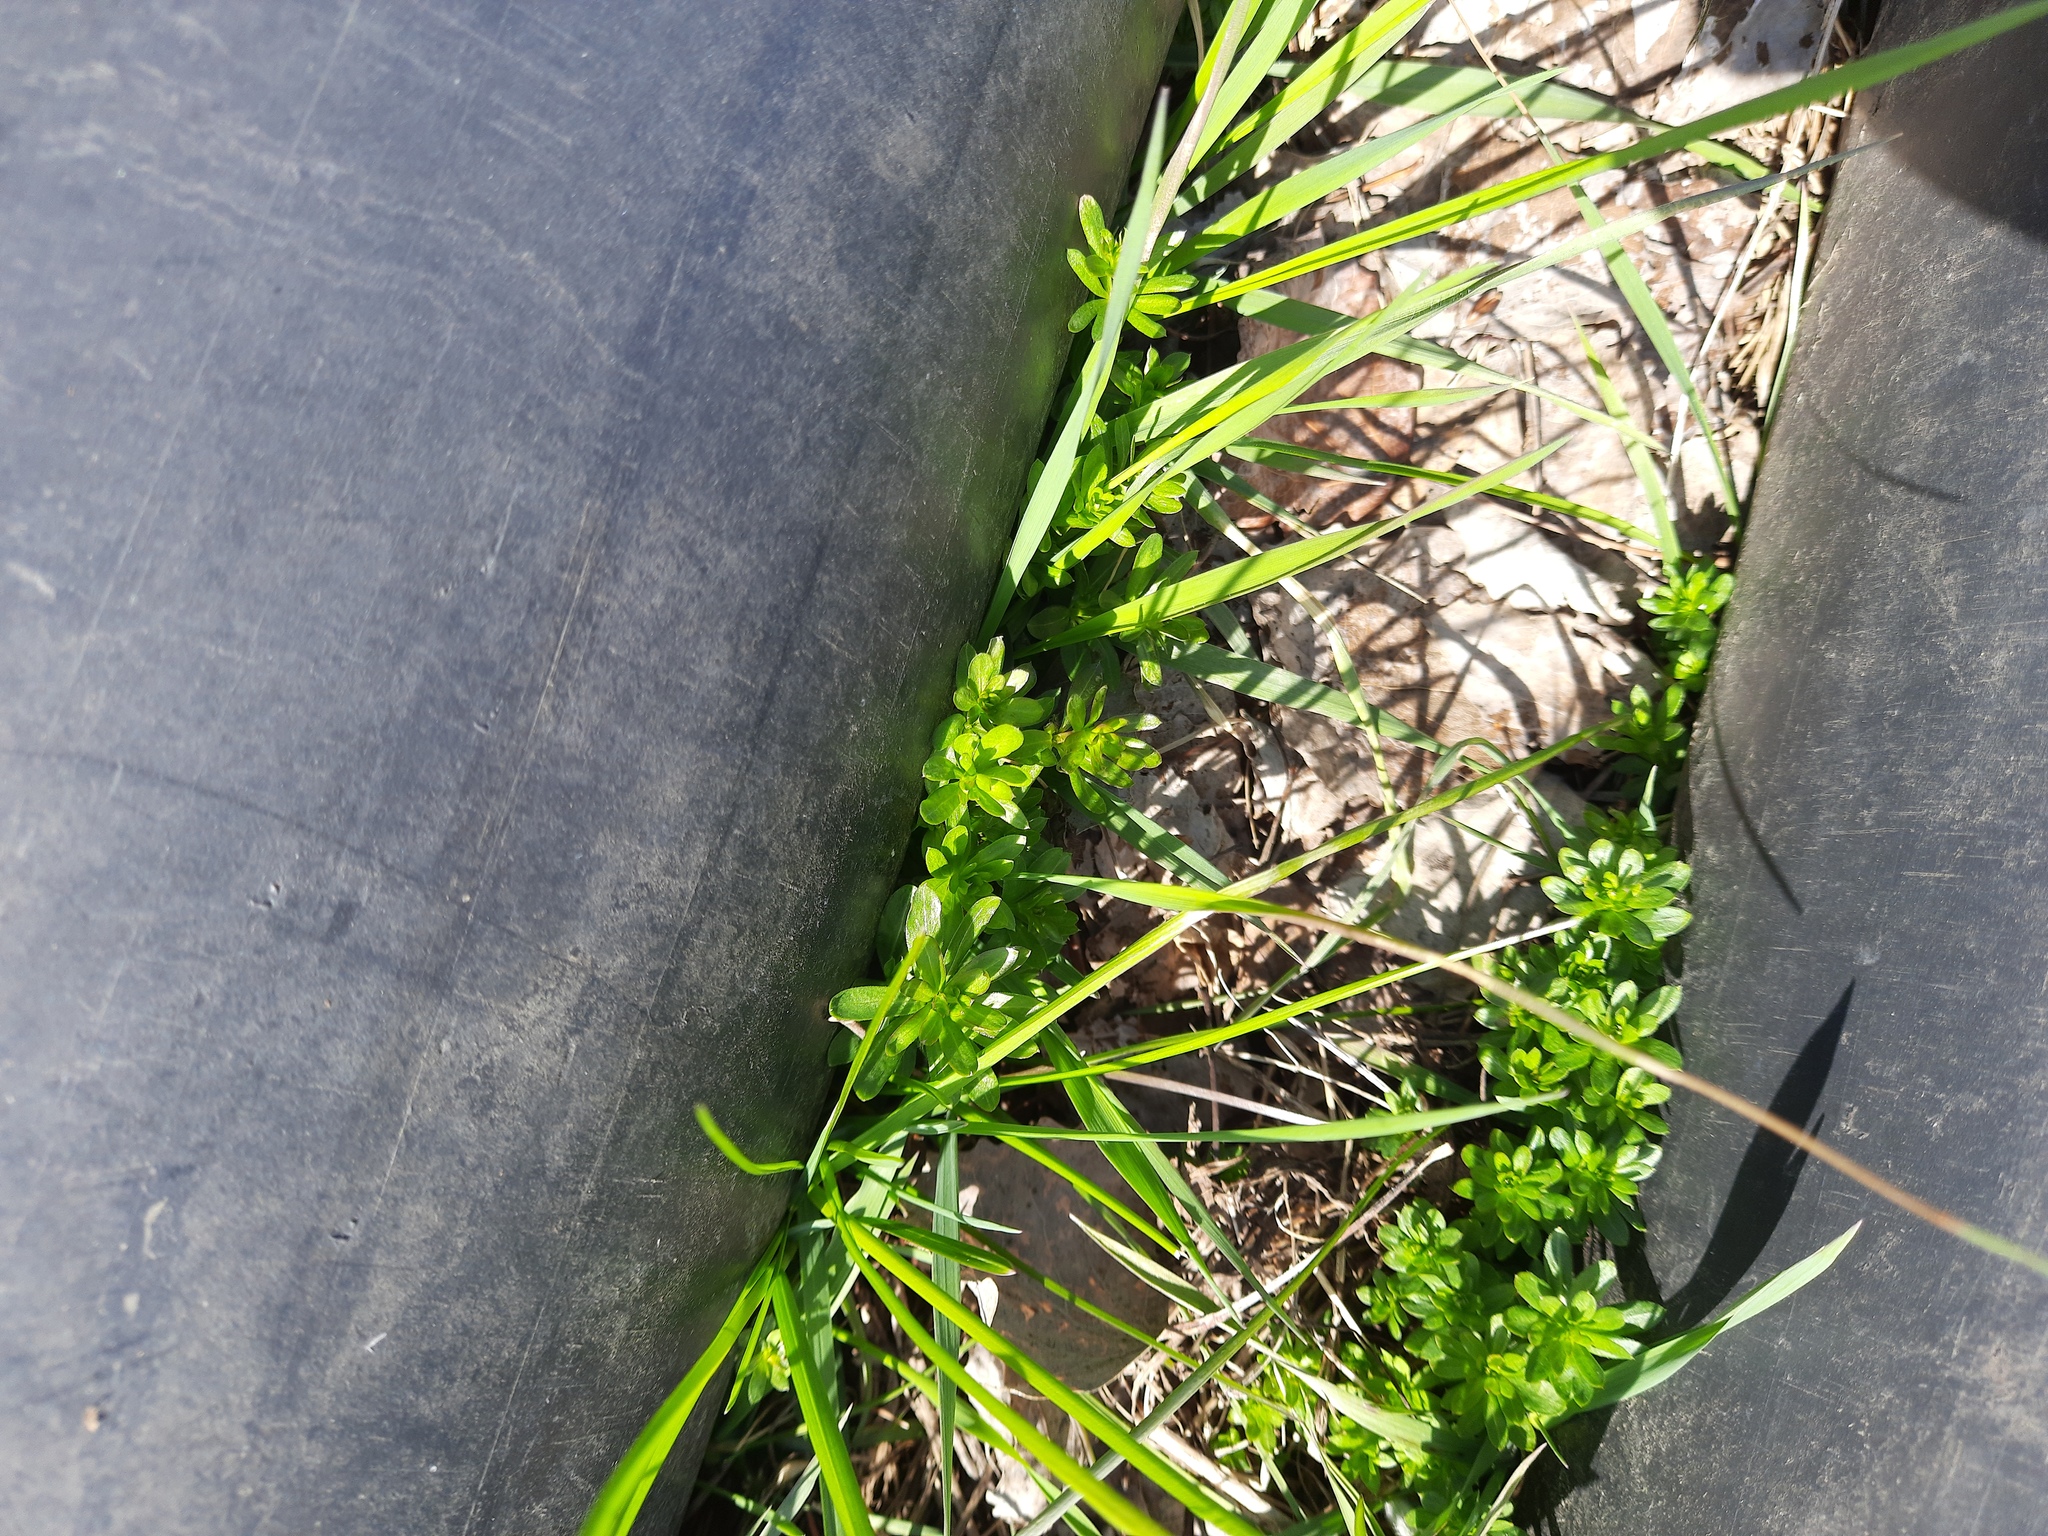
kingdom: Plantae
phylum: Tracheophyta
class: Magnoliopsida
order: Gentianales
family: Rubiaceae
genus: Galium
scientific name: Galium mollugo
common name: Hedge bedstraw
